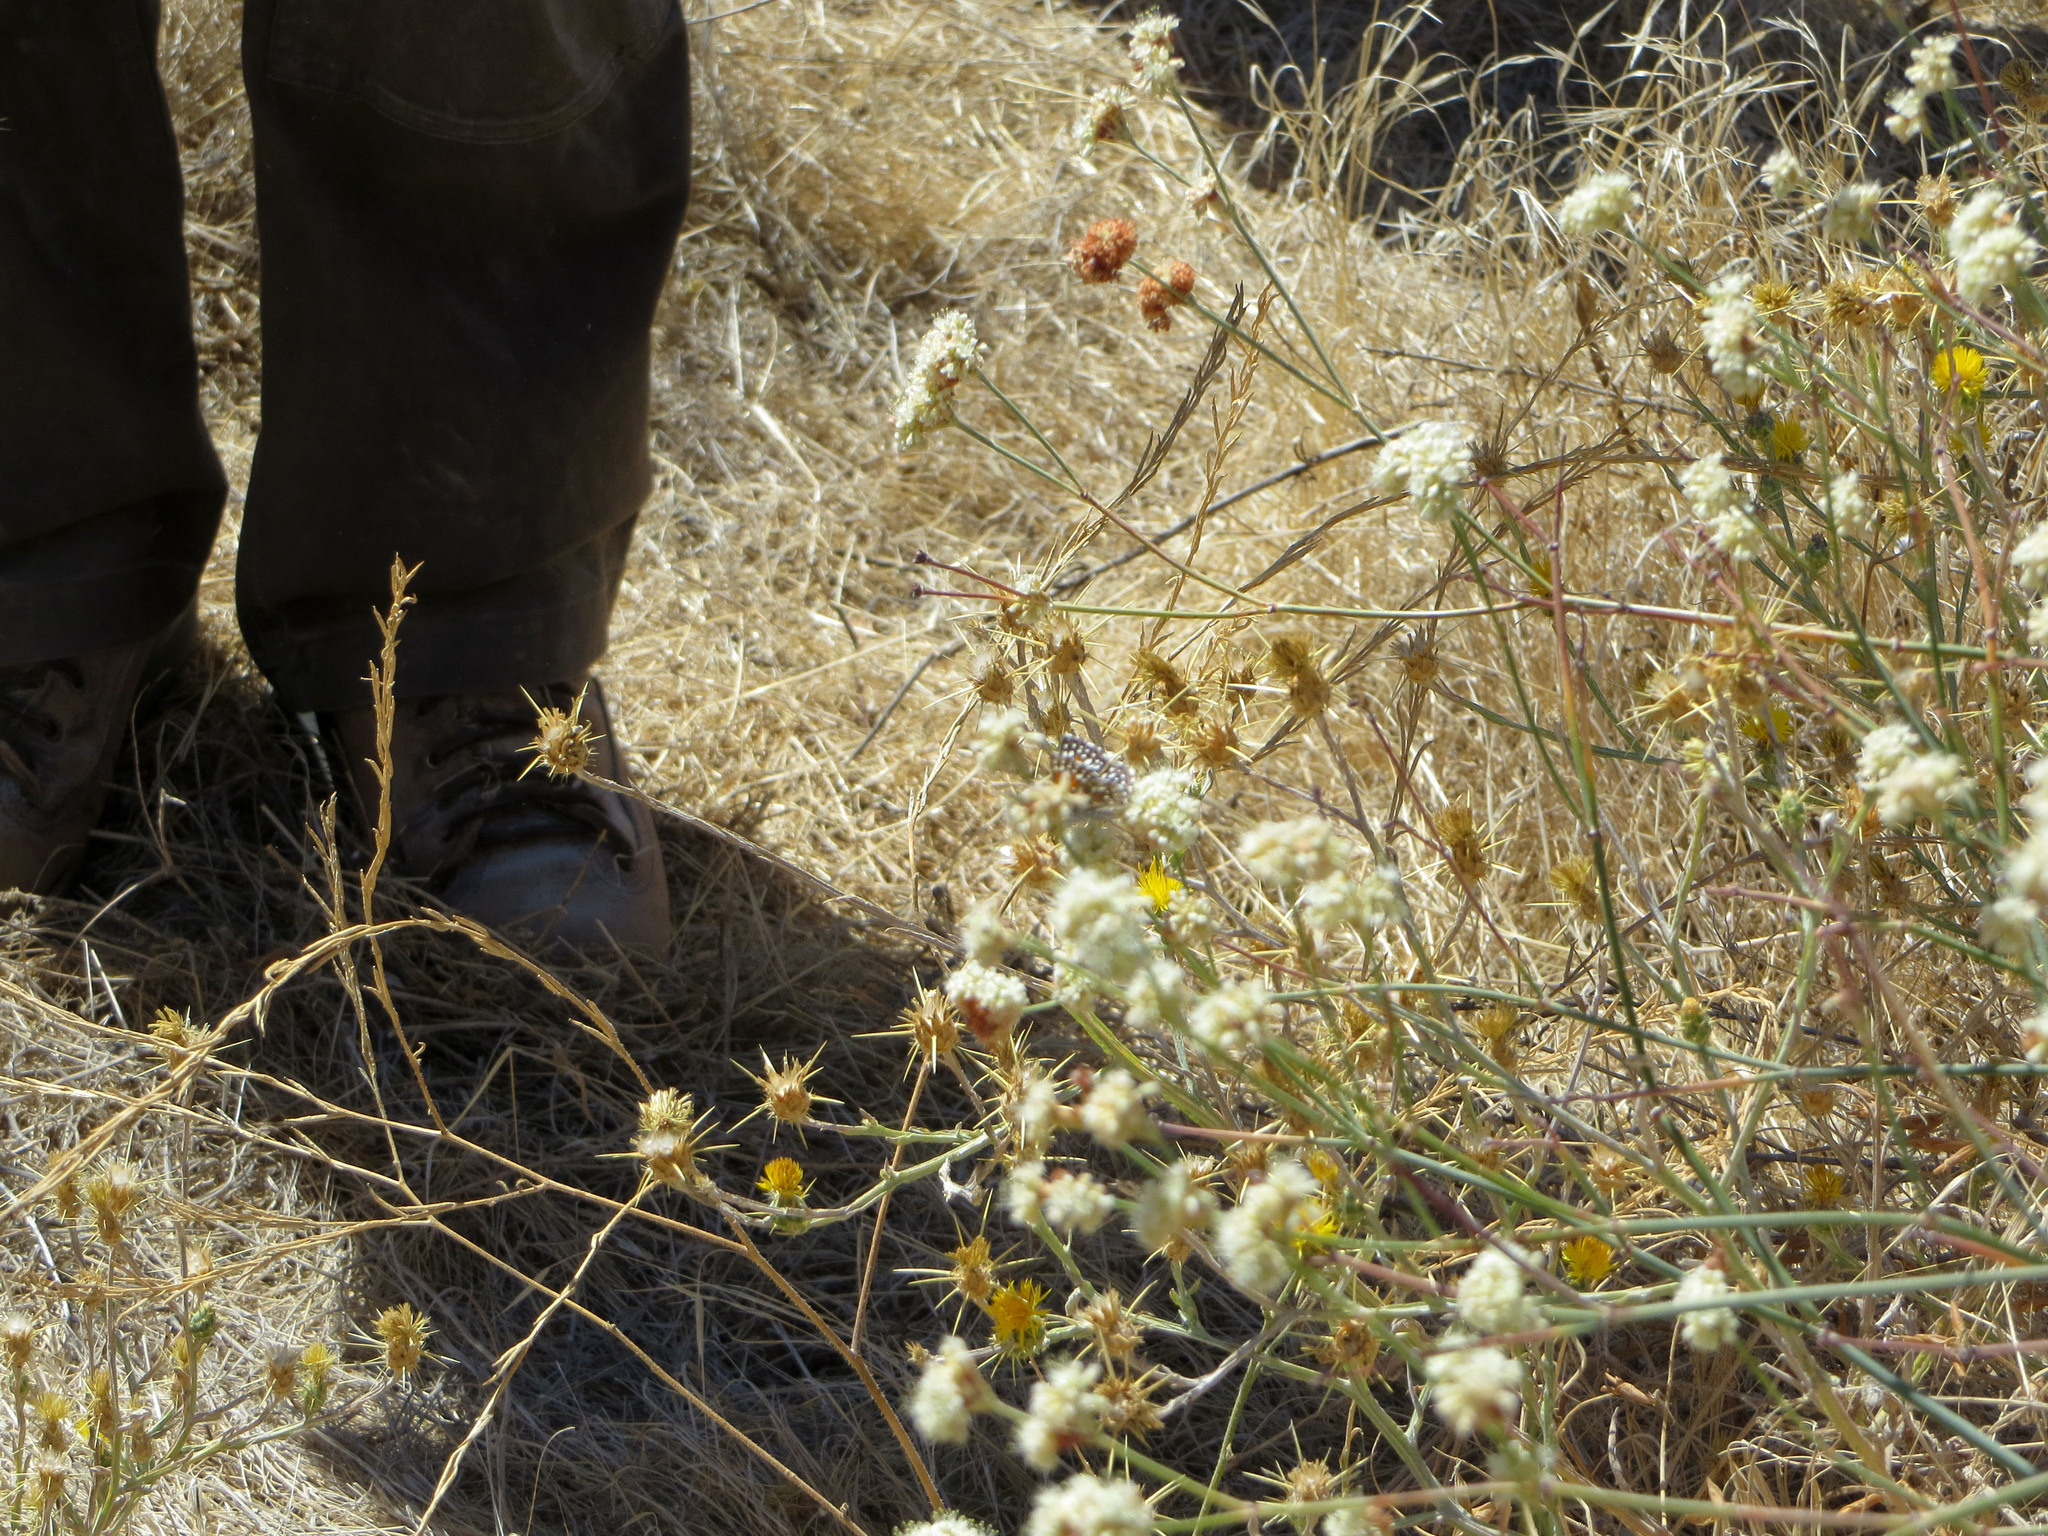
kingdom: Animalia
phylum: Arthropoda
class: Insecta
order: Lepidoptera
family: Riodinidae
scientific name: Riodinidae
